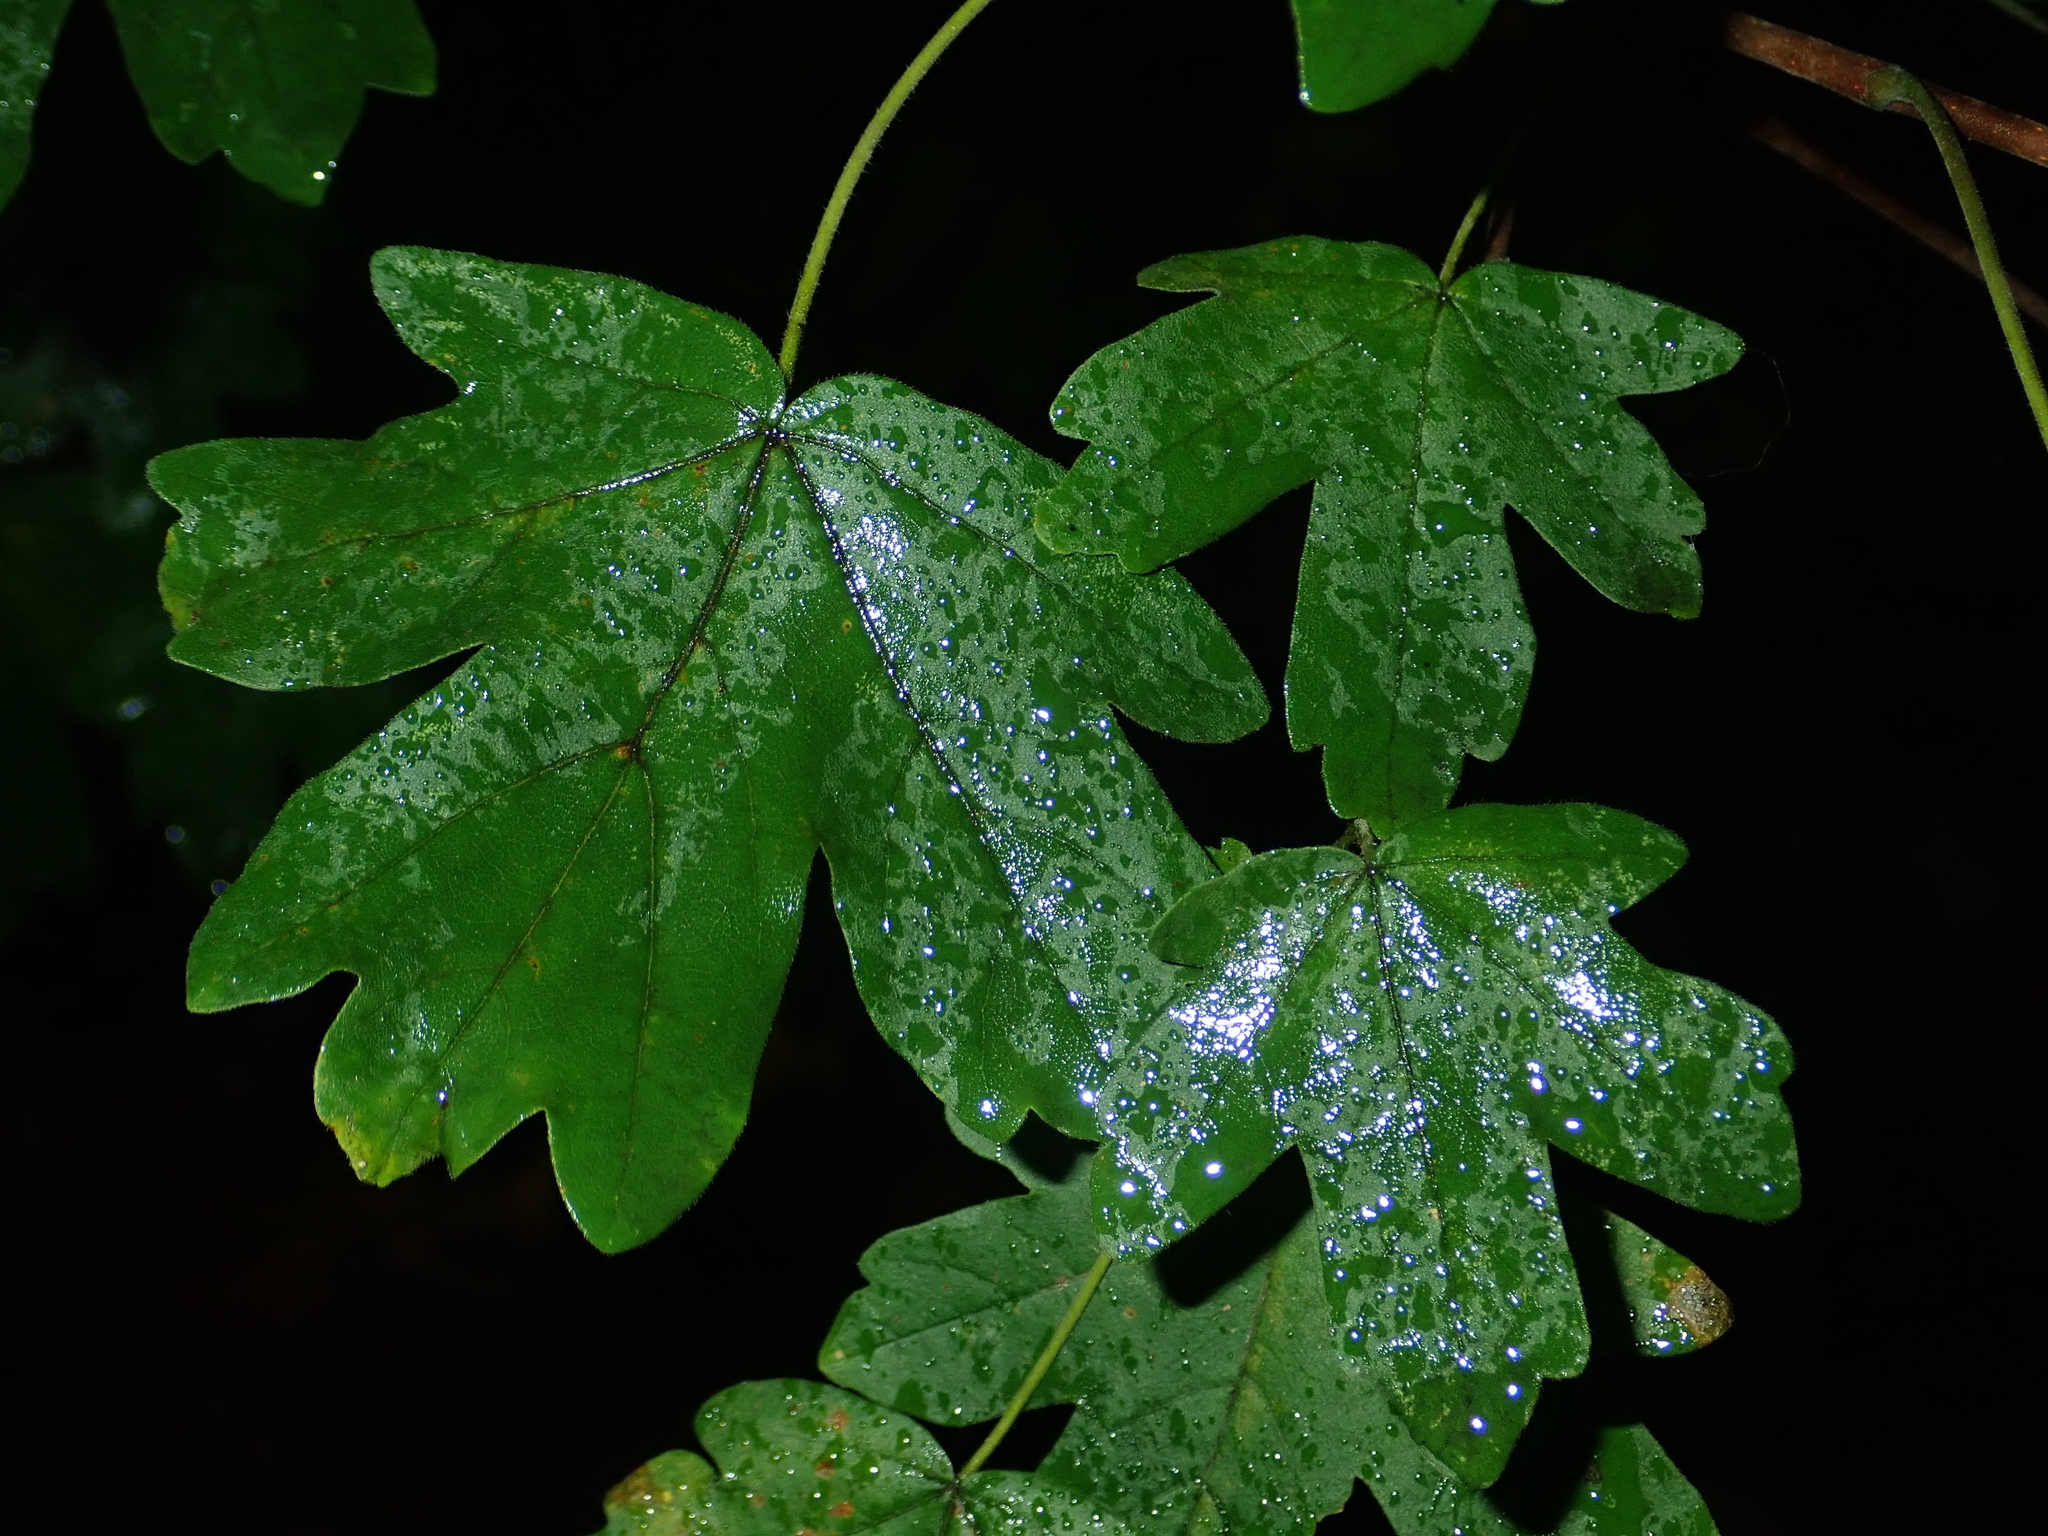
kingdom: Plantae
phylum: Tracheophyta
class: Magnoliopsida
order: Sapindales
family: Sapindaceae
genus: Acer
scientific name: Acer campestre
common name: Field maple
